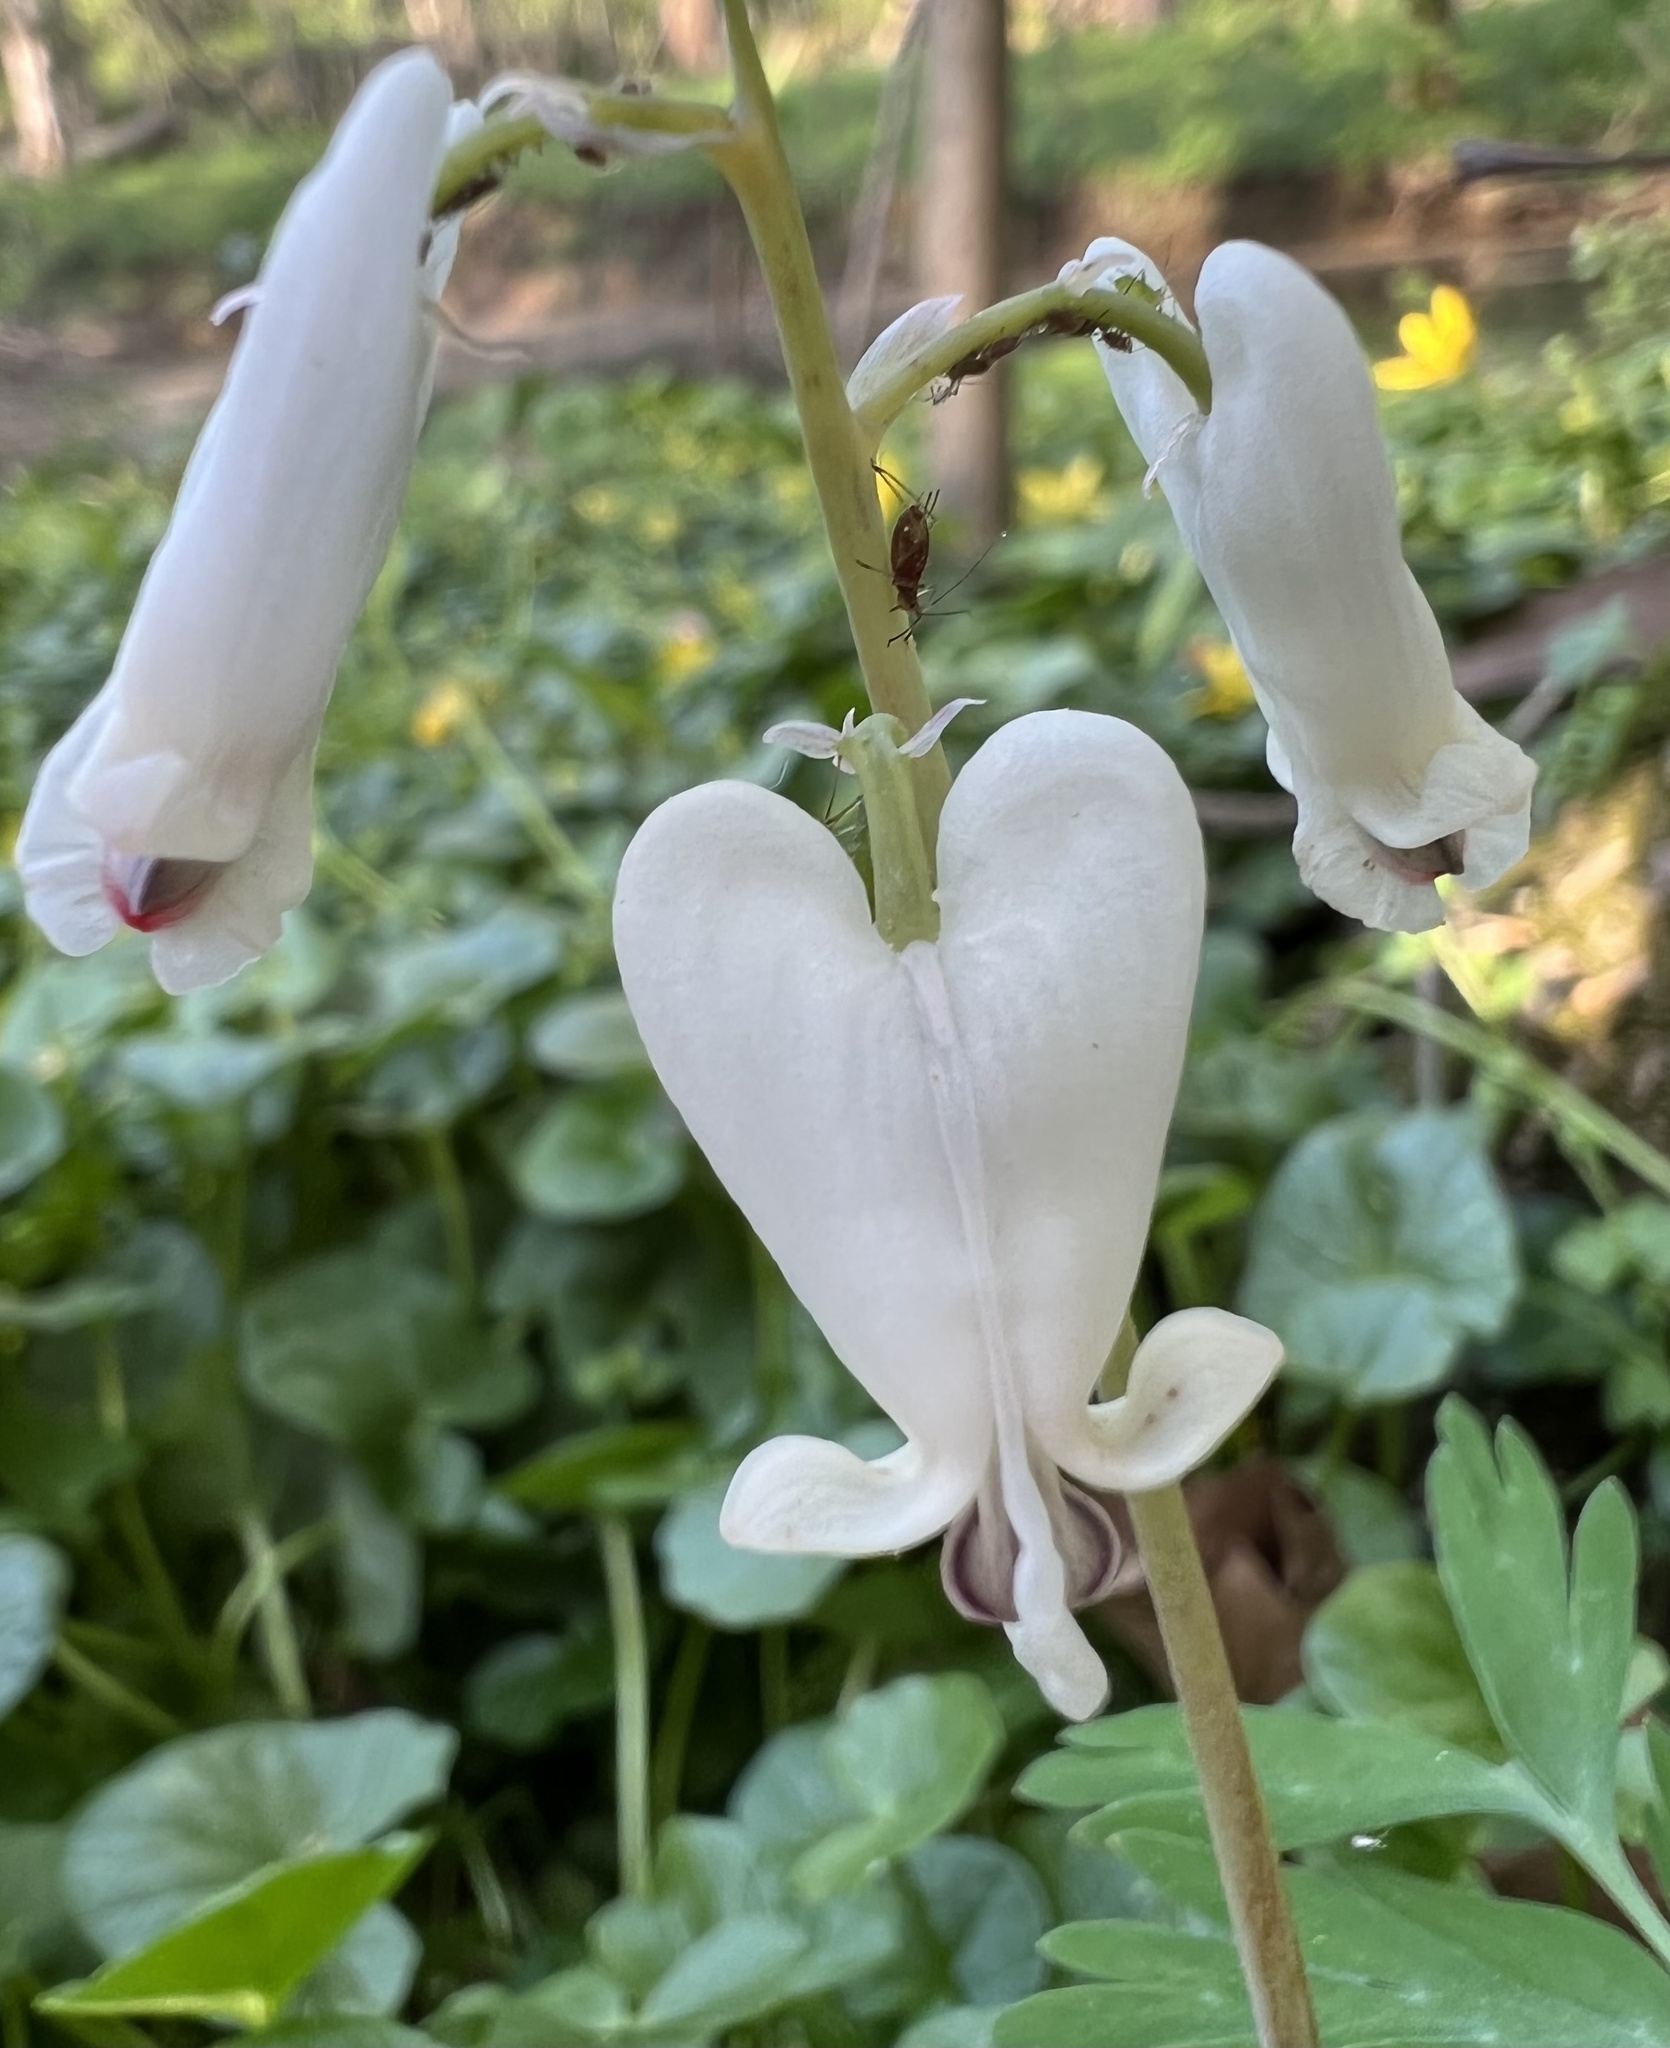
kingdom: Plantae
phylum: Tracheophyta
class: Magnoliopsida
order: Ranunculales
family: Papaveraceae
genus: Dicentra
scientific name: Dicentra canadensis
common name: Squirrel-corn
